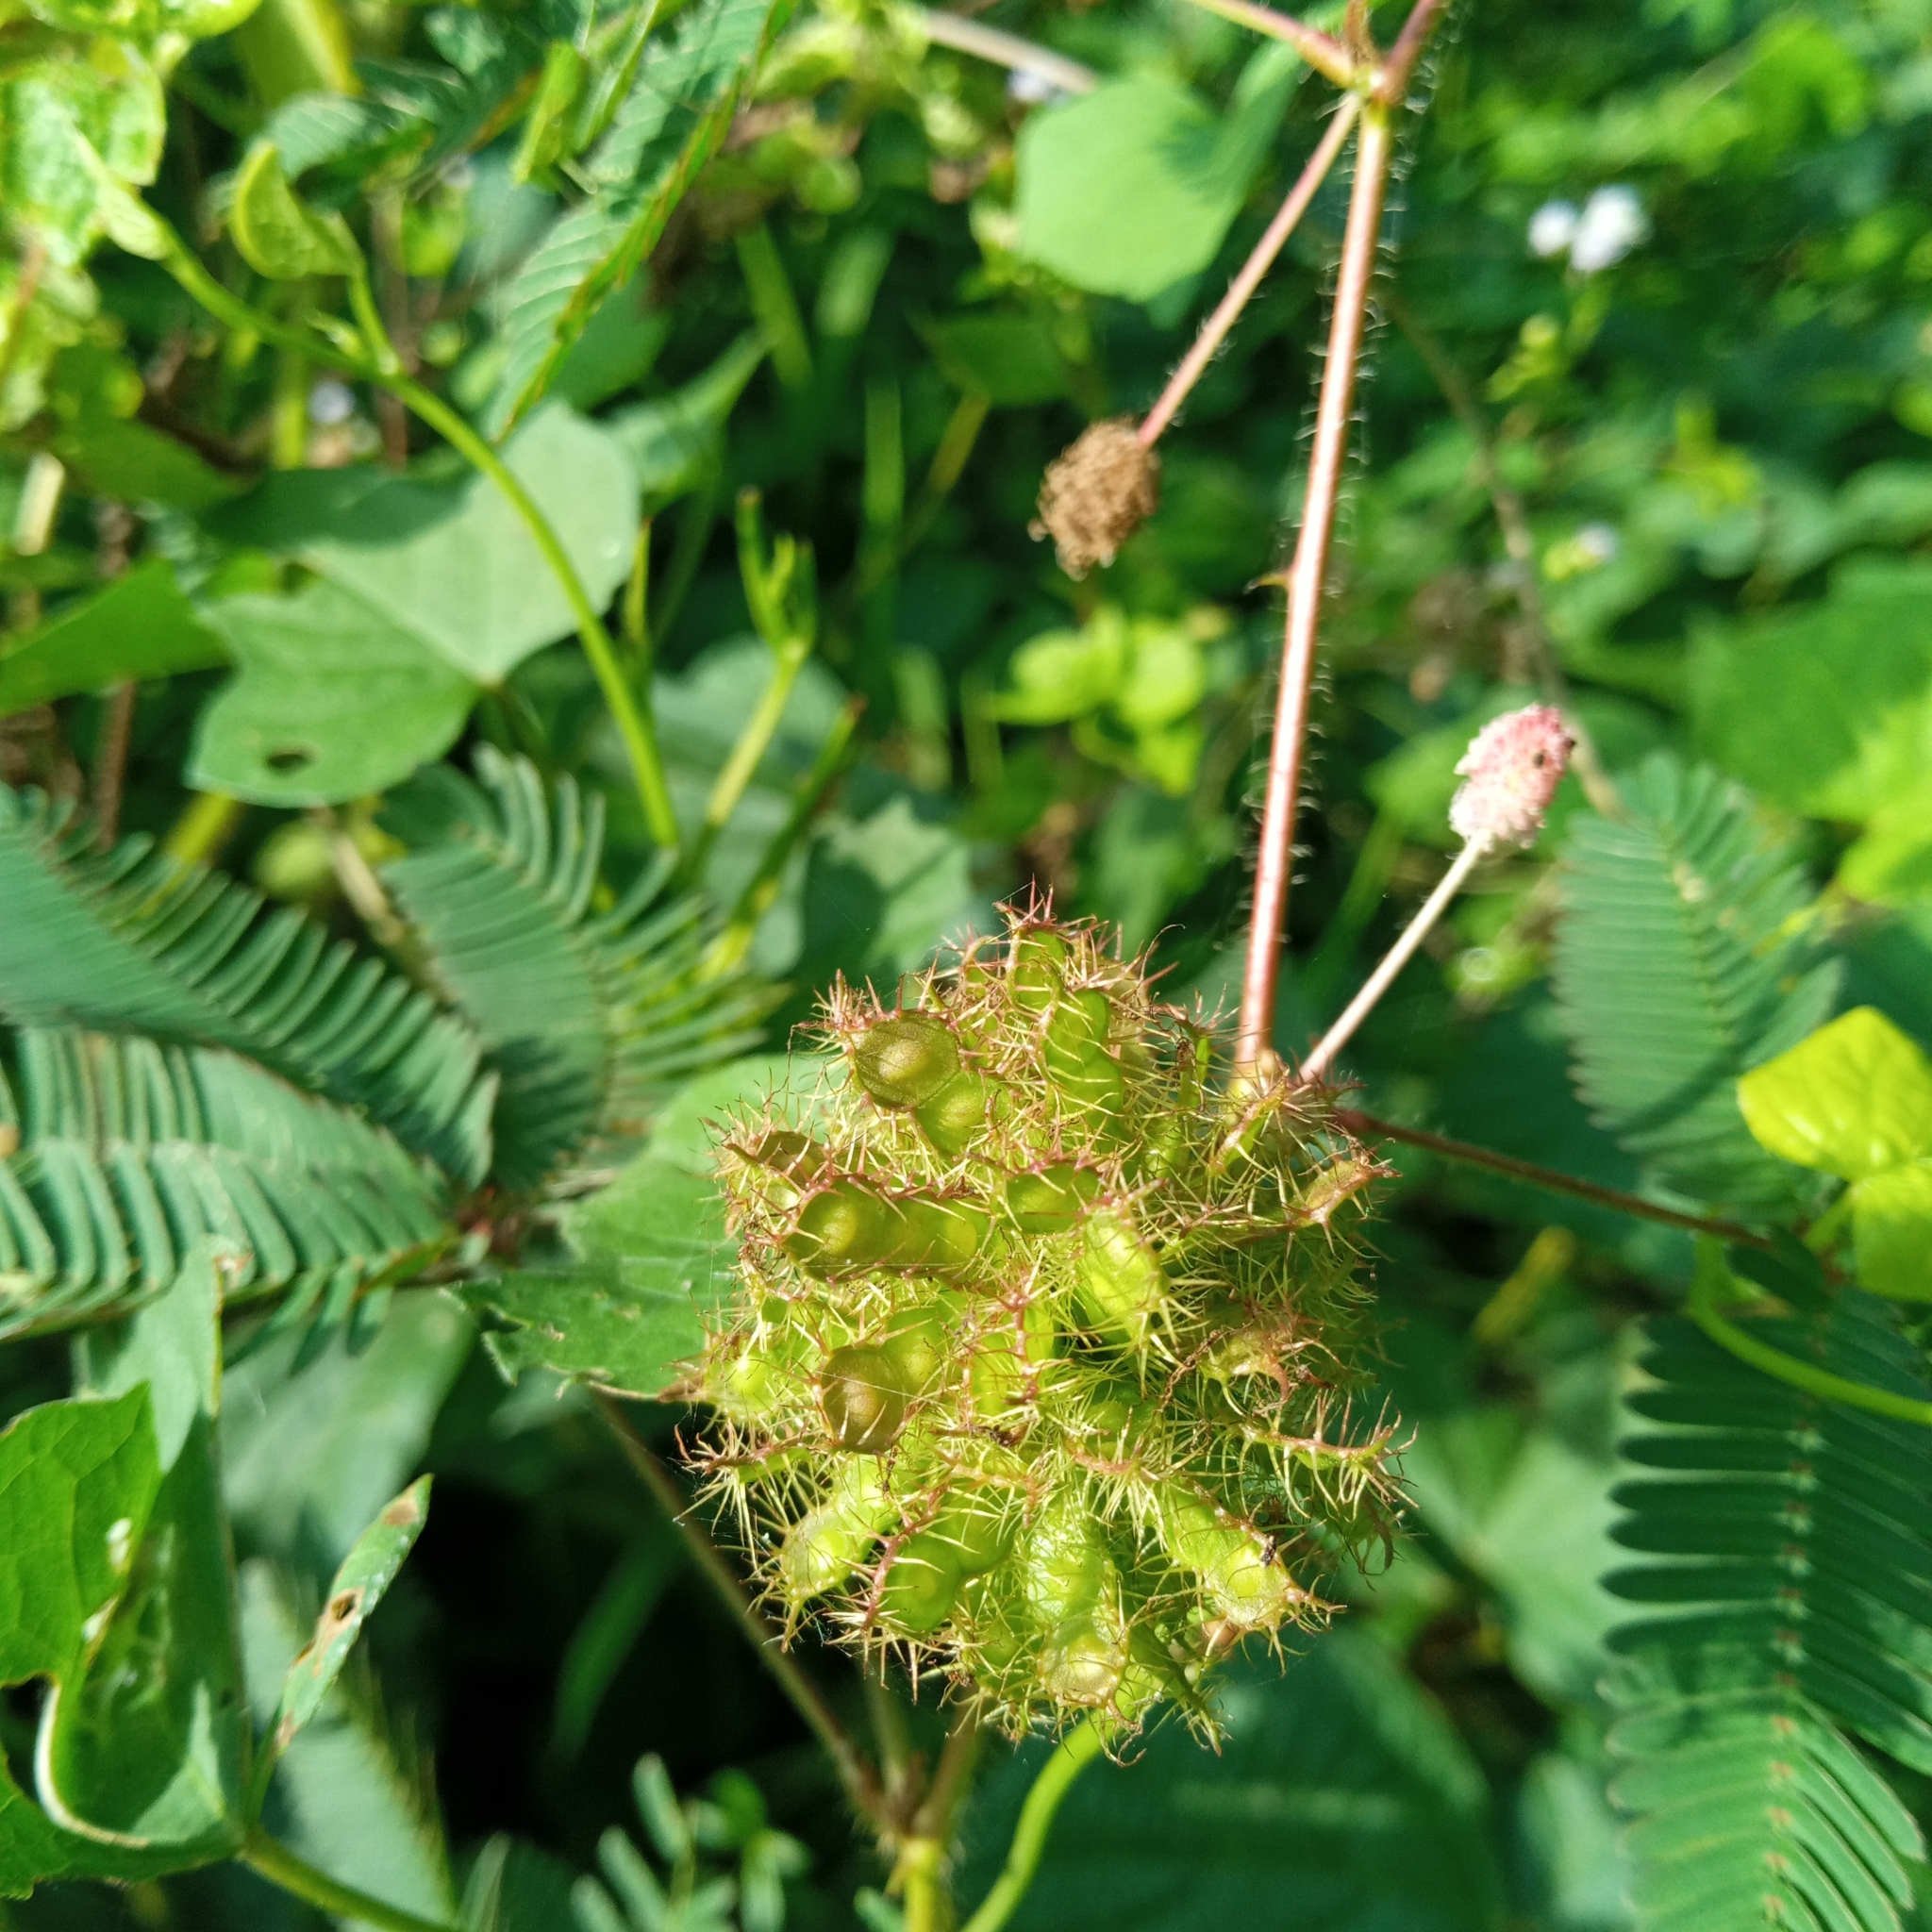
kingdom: Plantae
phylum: Tracheophyta
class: Magnoliopsida
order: Fabales
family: Fabaceae
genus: Mimosa
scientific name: Mimosa pudica
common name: Sensitive plant
